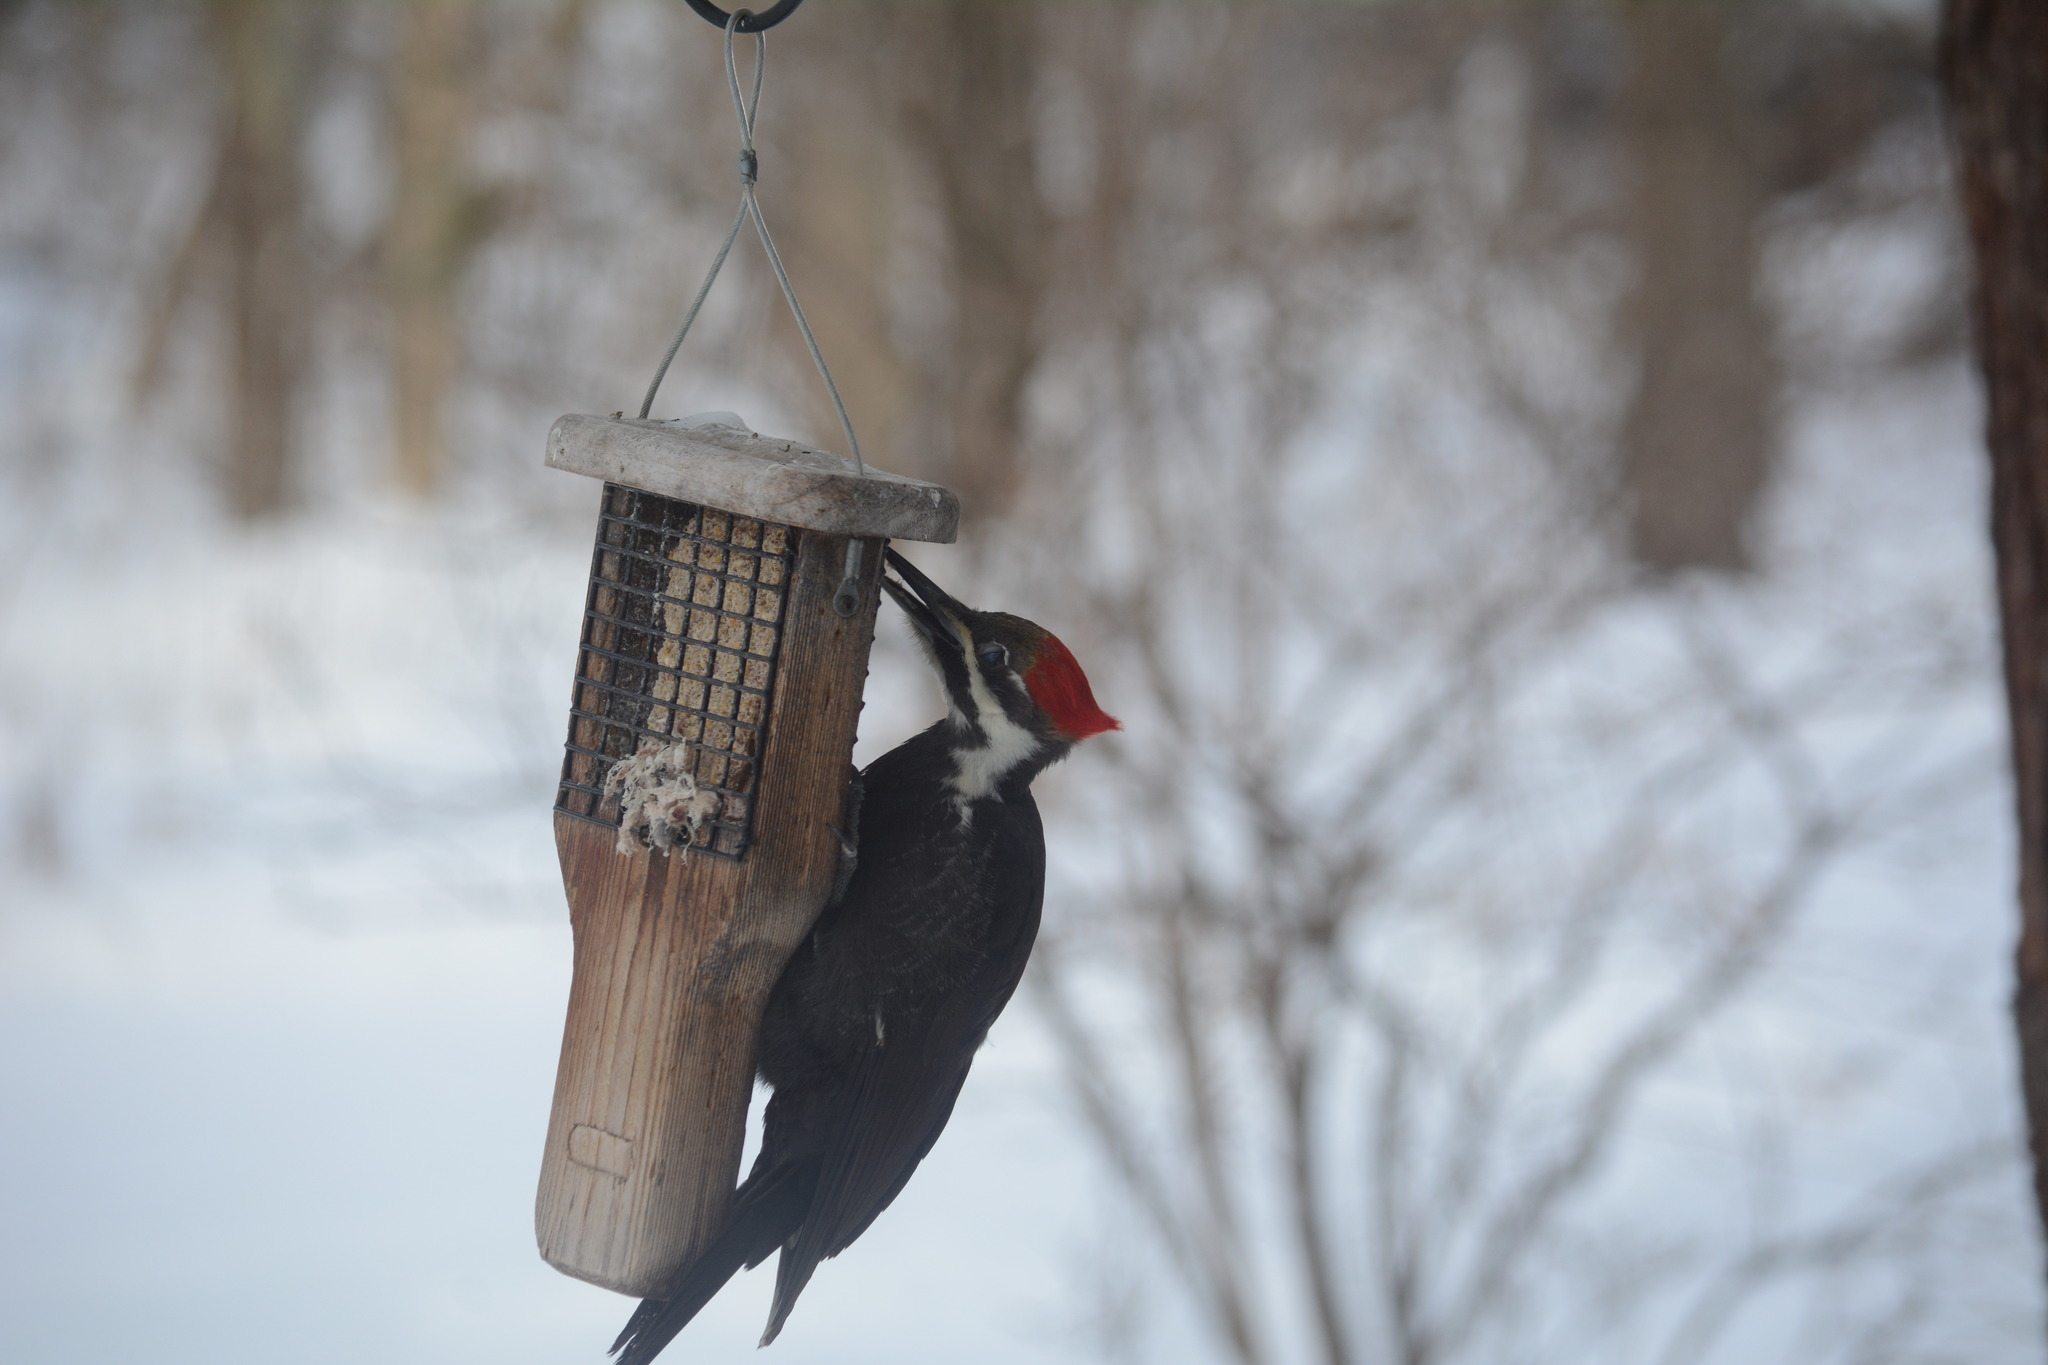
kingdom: Animalia
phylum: Chordata
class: Aves
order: Piciformes
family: Picidae
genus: Dryocopus
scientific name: Dryocopus pileatus
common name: Pileated woodpecker
